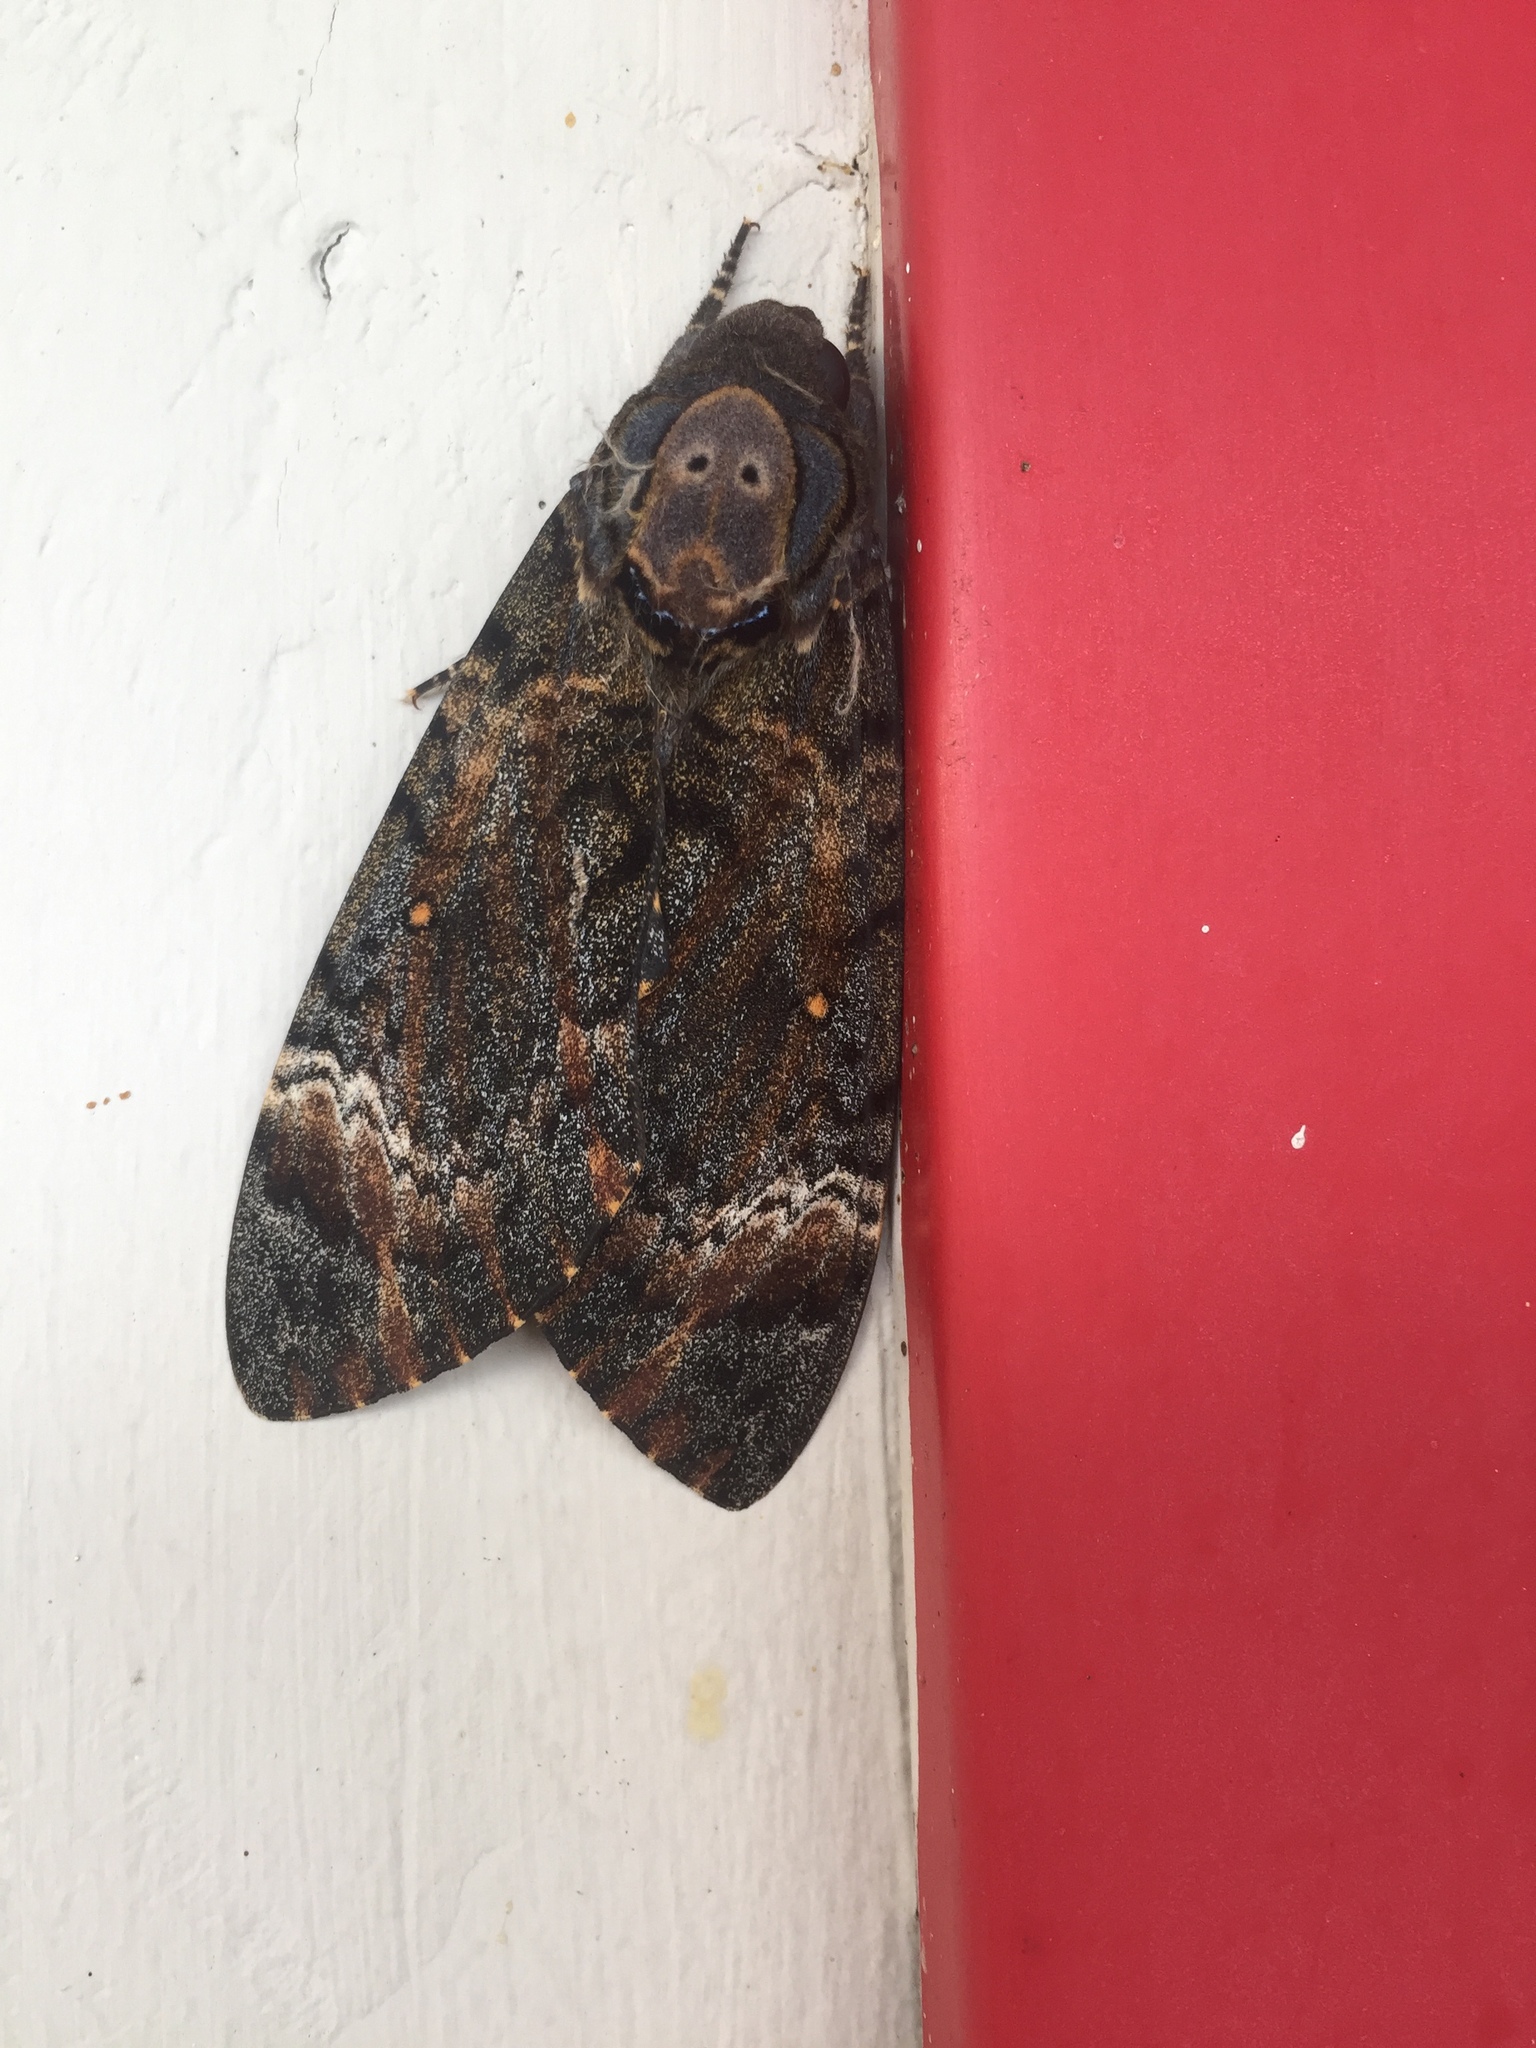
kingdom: Animalia
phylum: Arthropoda
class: Insecta
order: Lepidoptera
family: Sphingidae
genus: Acherontia
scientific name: Acherontia styx
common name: Death's-head hawk moth
